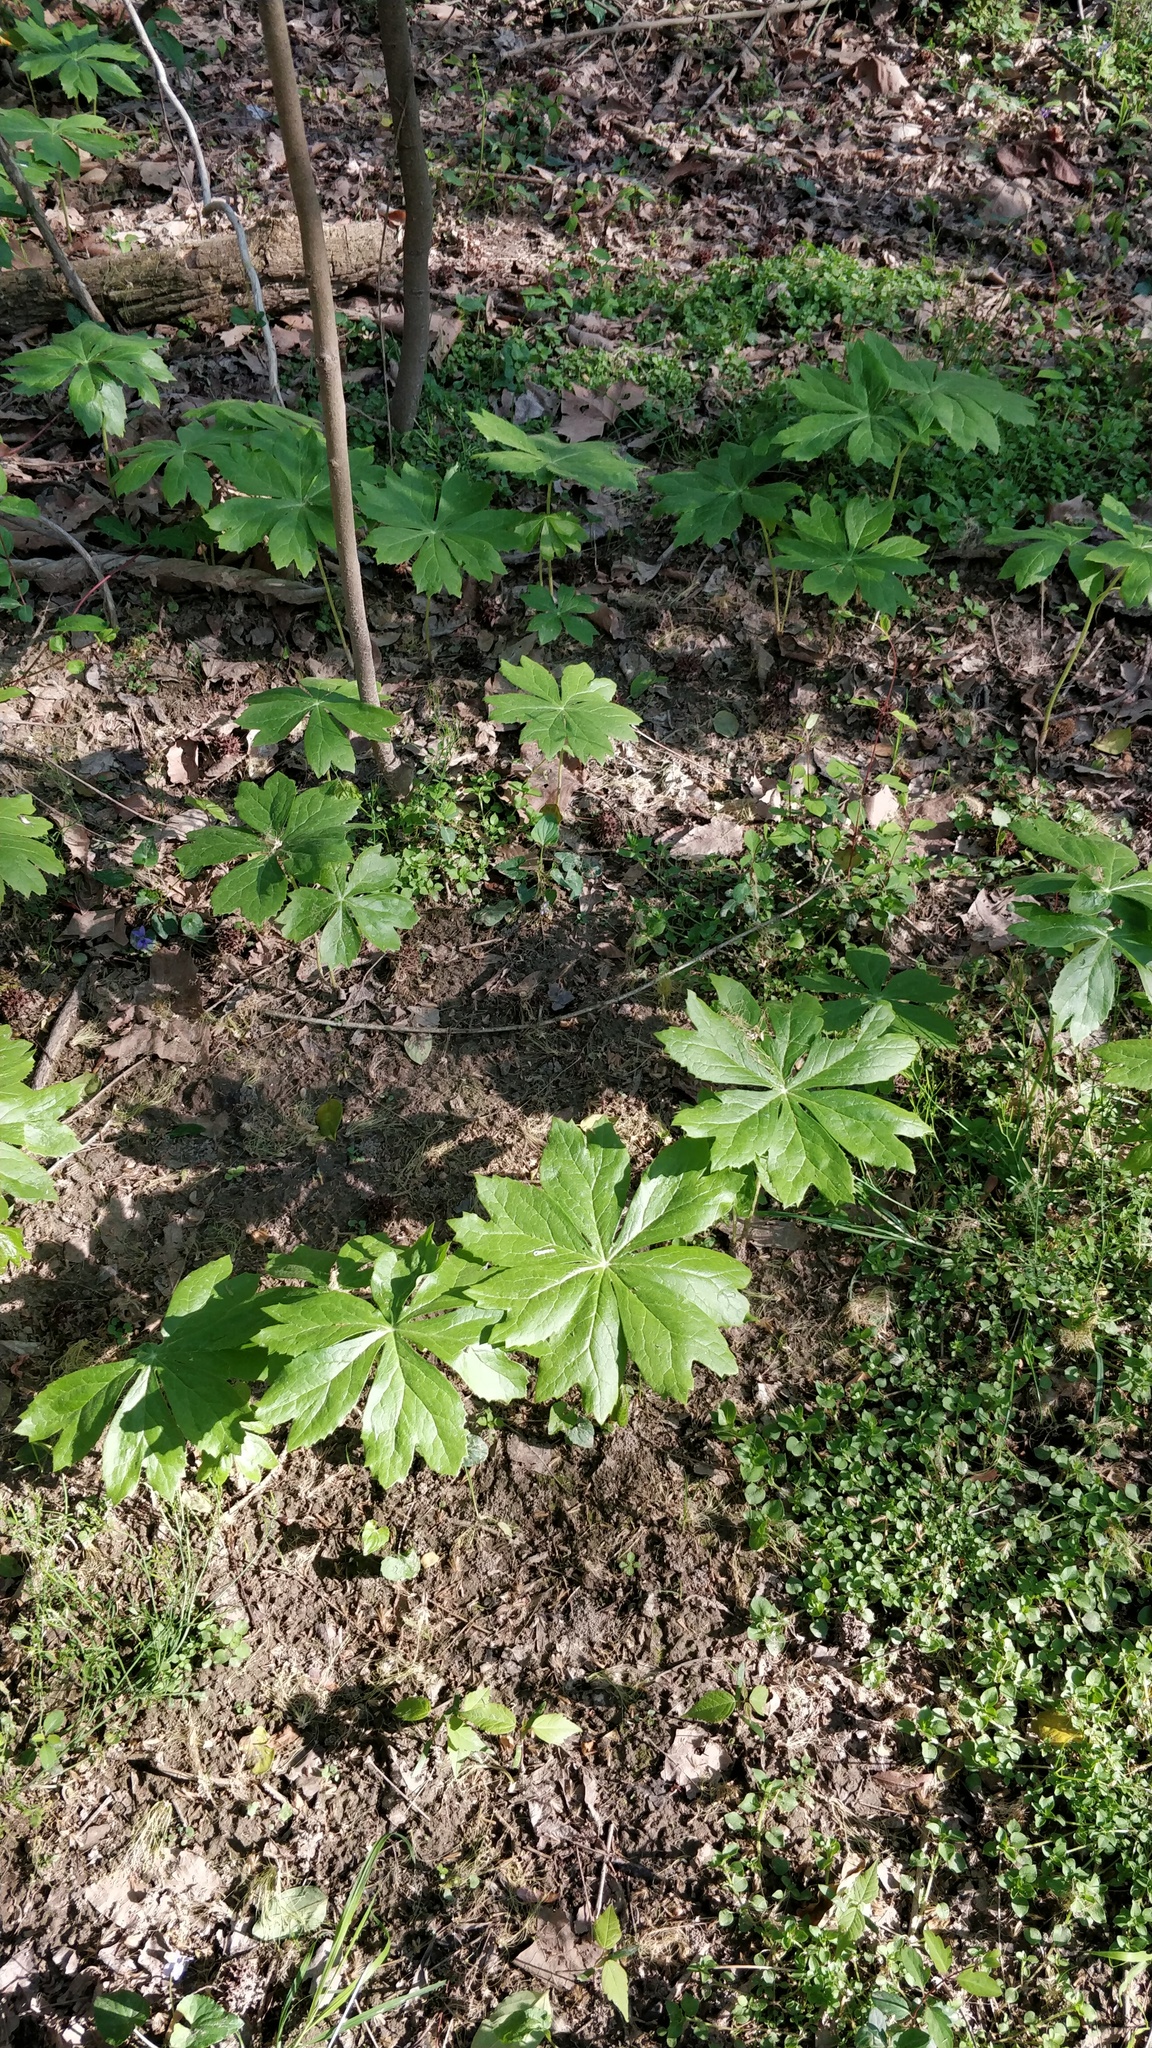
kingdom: Plantae
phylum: Tracheophyta
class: Magnoliopsida
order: Ranunculales
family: Berberidaceae
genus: Podophyllum
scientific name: Podophyllum peltatum
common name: Wild mandrake
